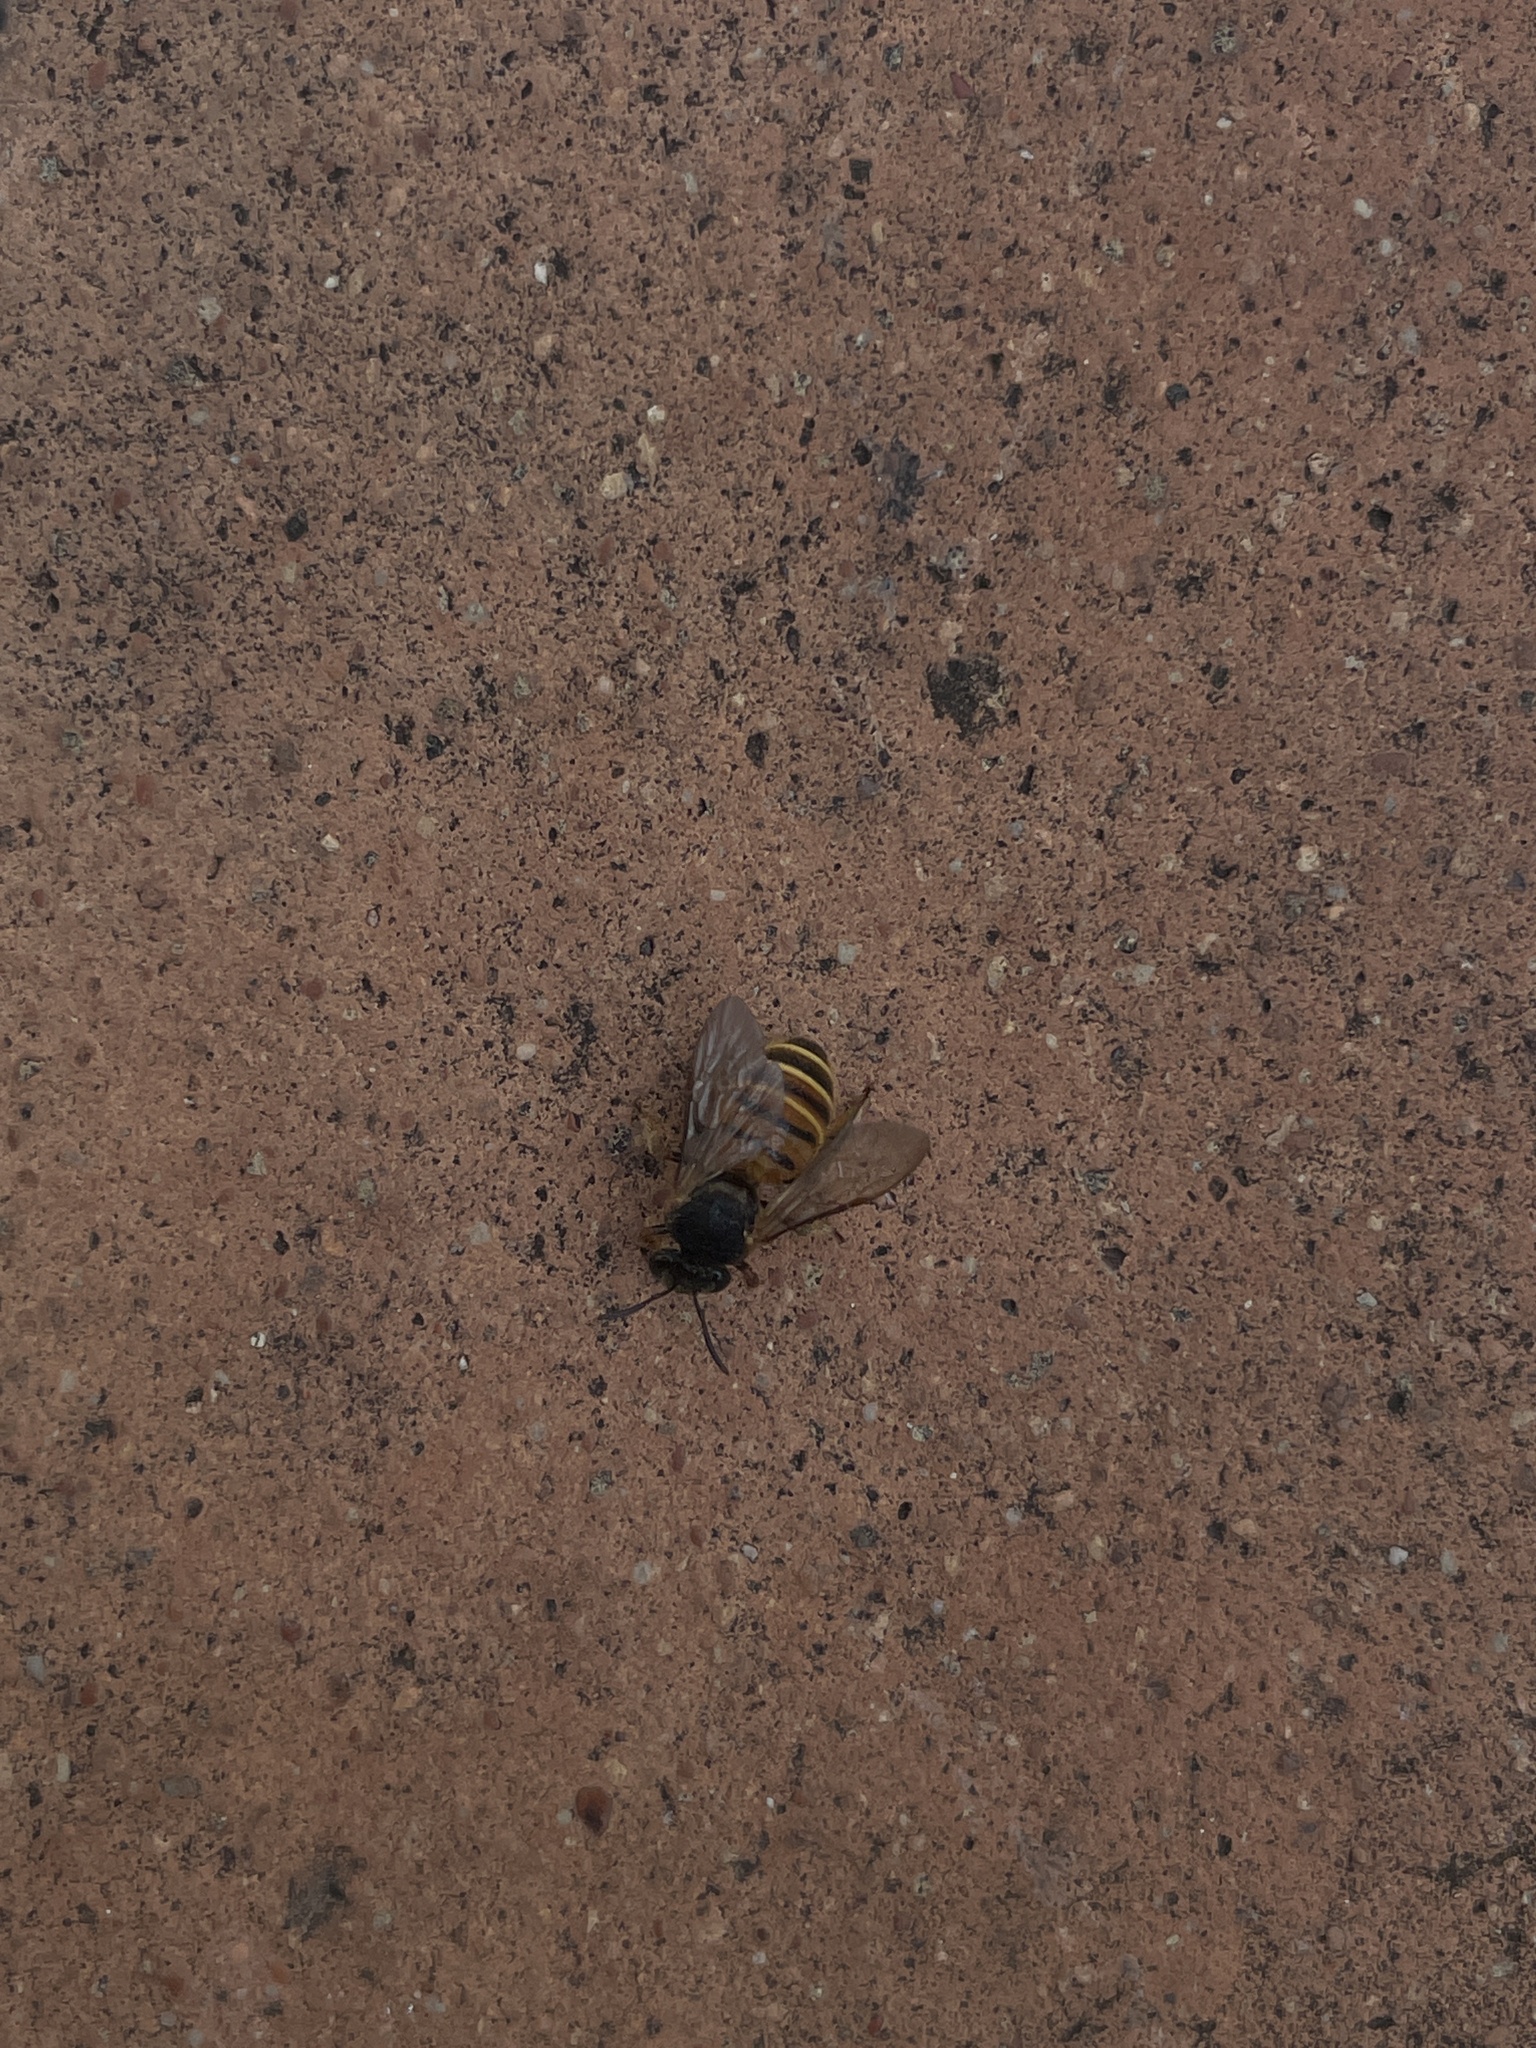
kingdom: Animalia
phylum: Arthropoda
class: Insecta
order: Hymenoptera
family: Halictidae
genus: Nomia
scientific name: Nomia penangensis
